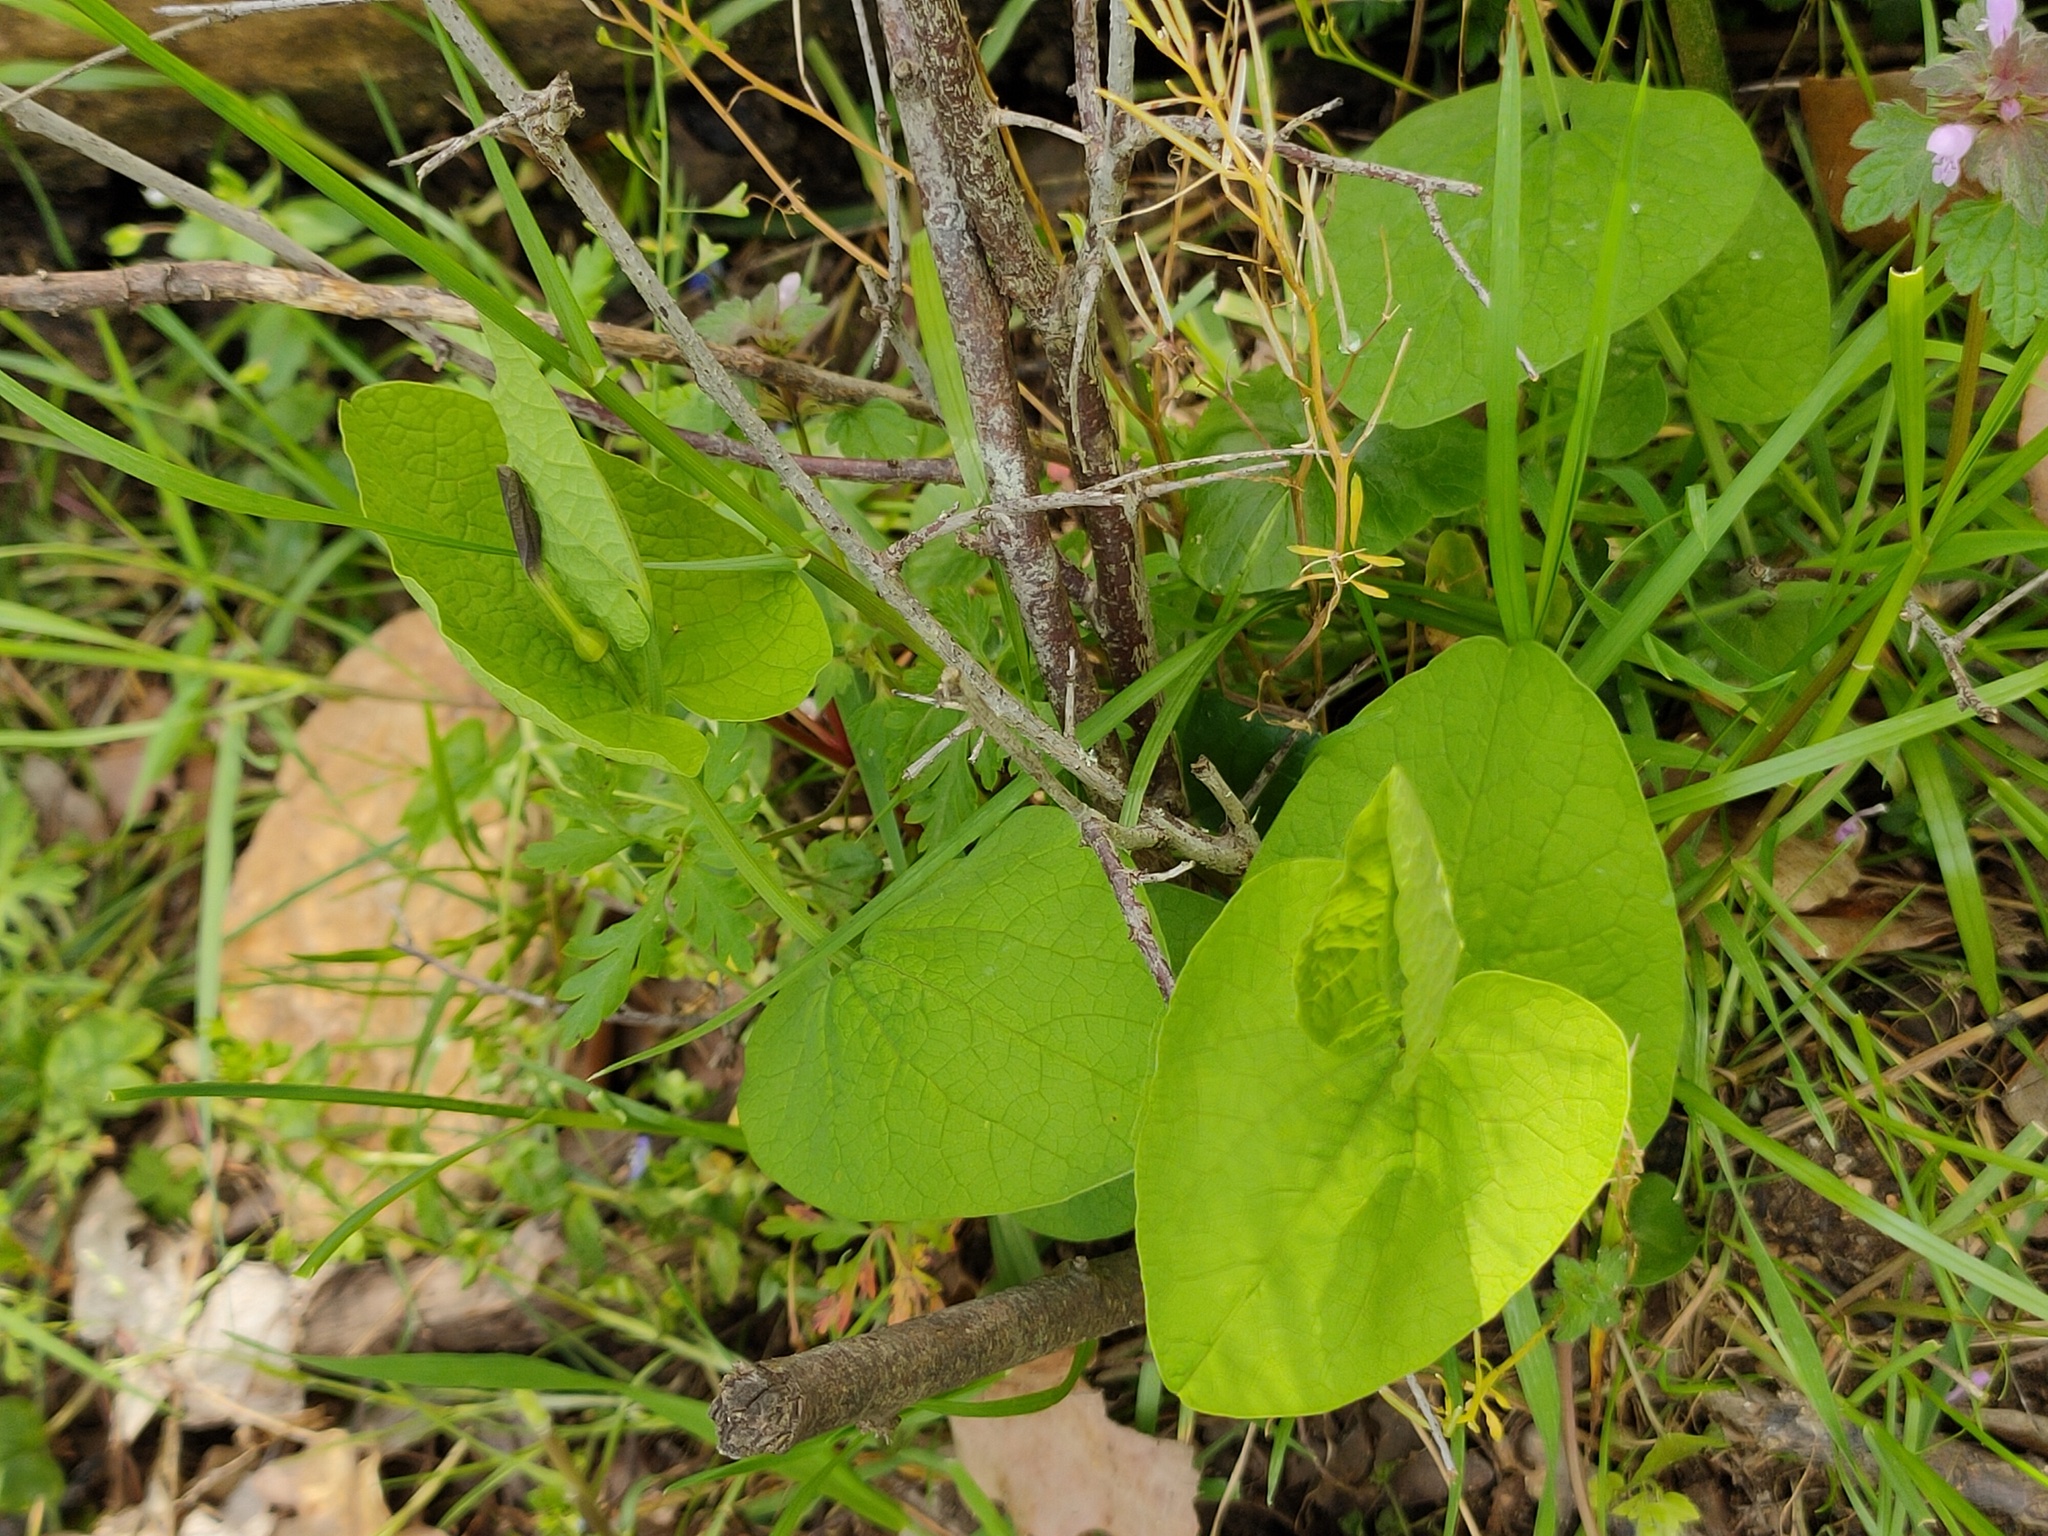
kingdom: Plantae
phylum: Tracheophyta
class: Magnoliopsida
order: Piperales
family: Aristolochiaceae
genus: Aristolochia
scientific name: Aristolochia rotunda
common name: Smearwort
